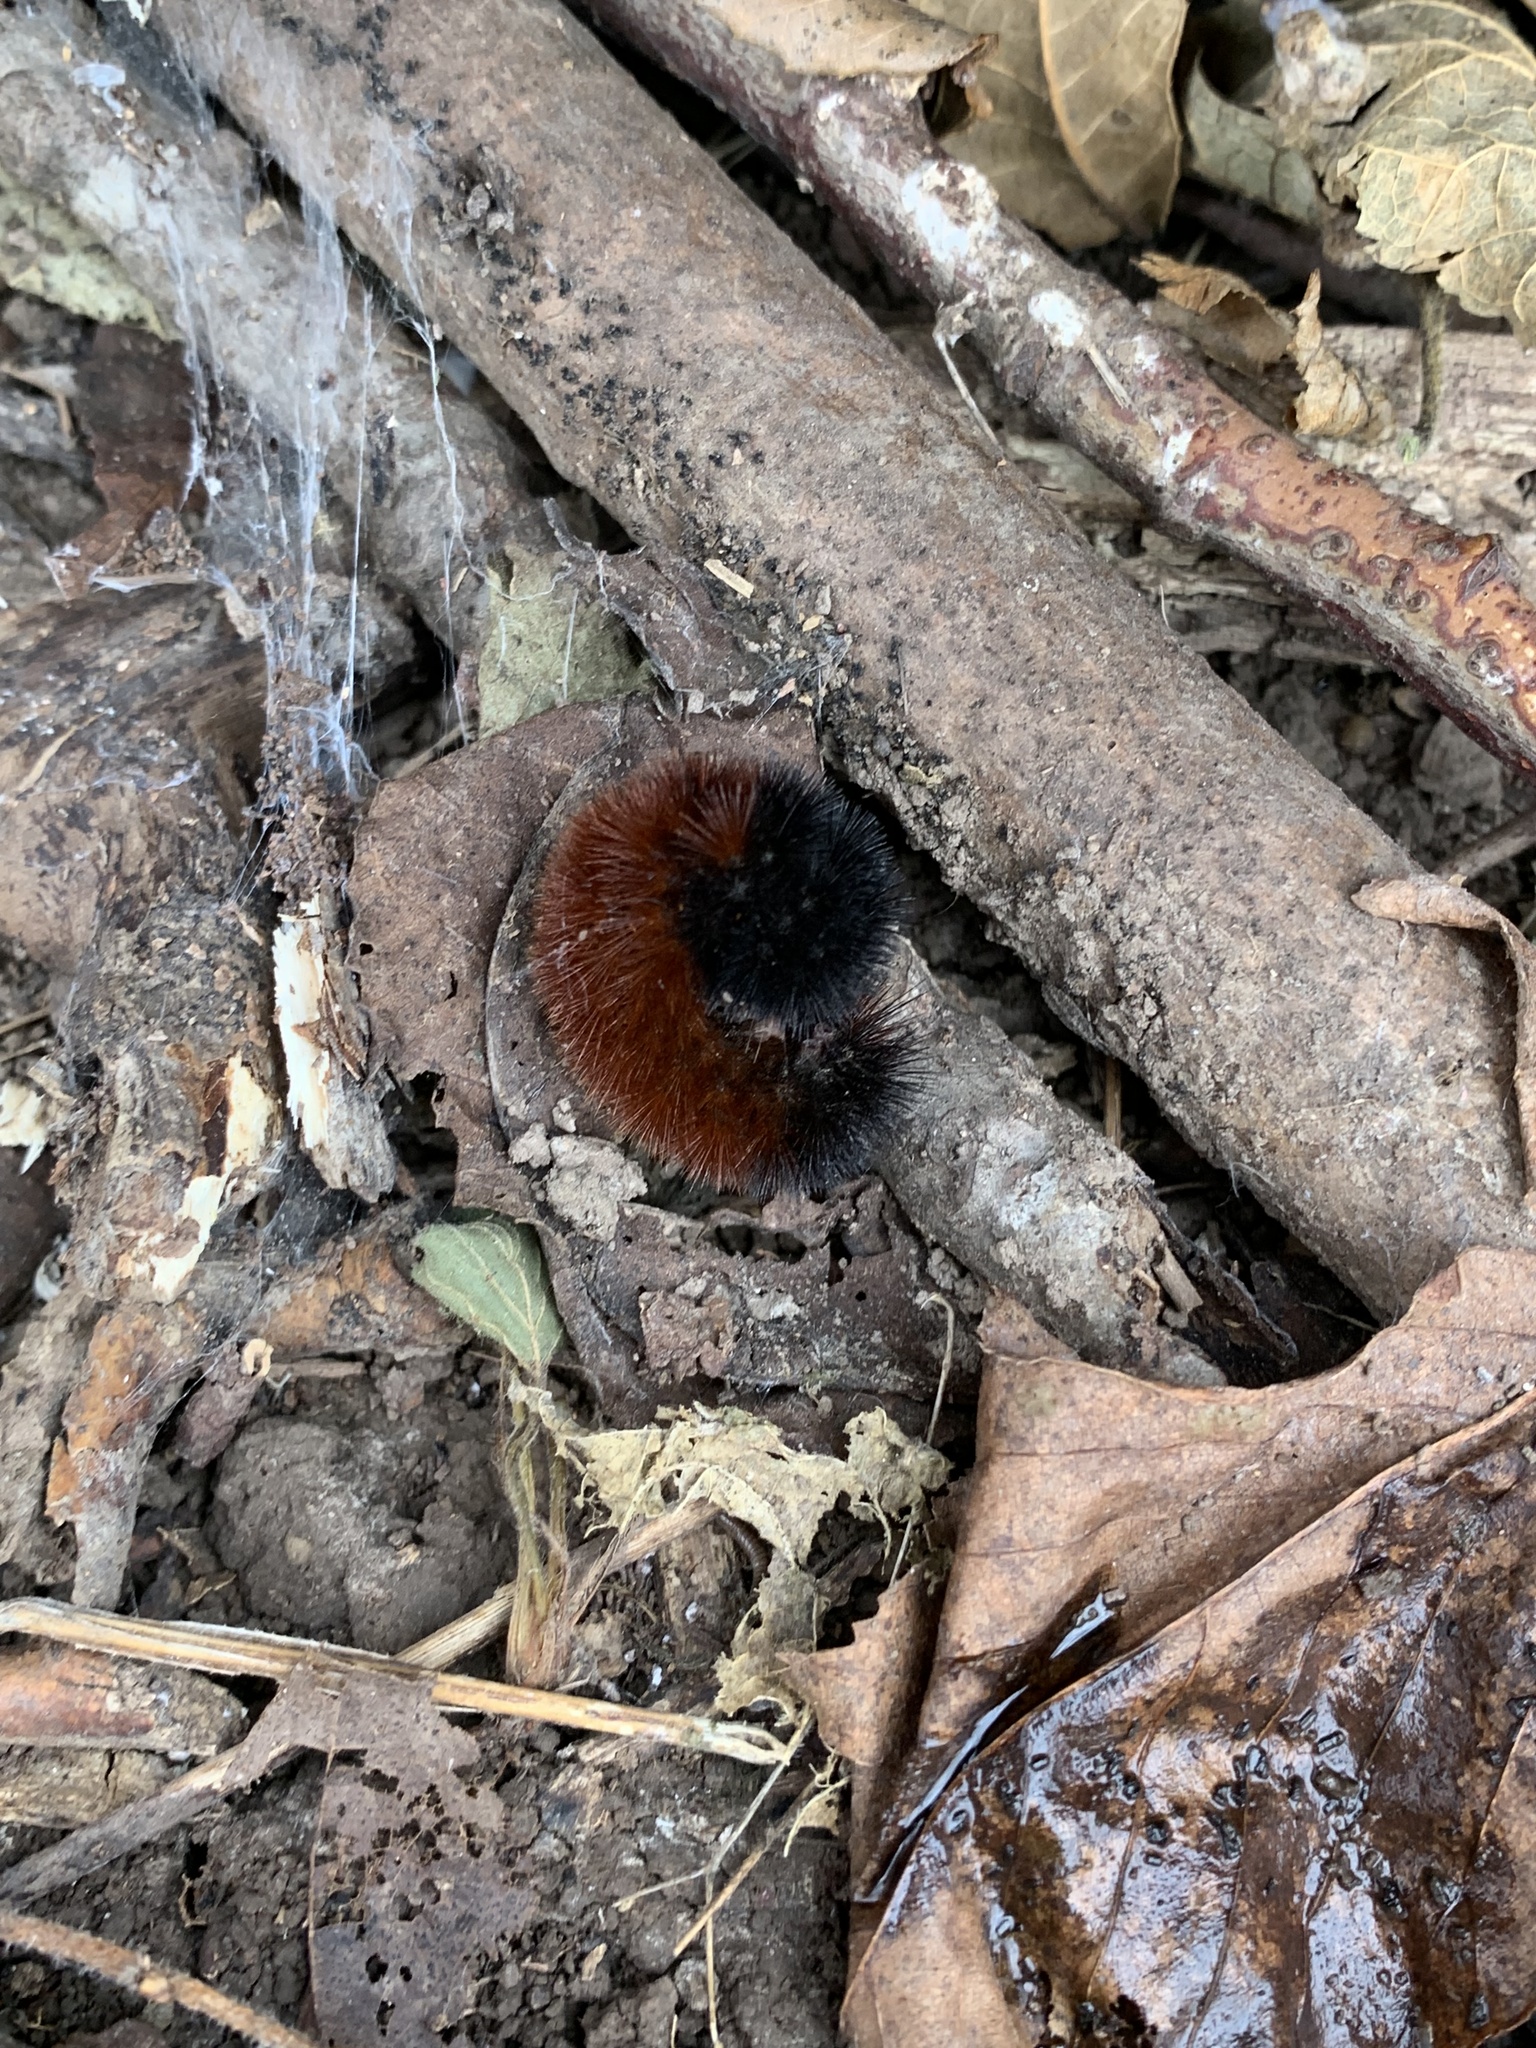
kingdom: Animalia
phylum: Arthropoda
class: Insecta
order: Lepidoptera
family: Erebidae
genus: Pyrrharctia
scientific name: Pyrrharctia isabella
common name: Isabella tiger moth
